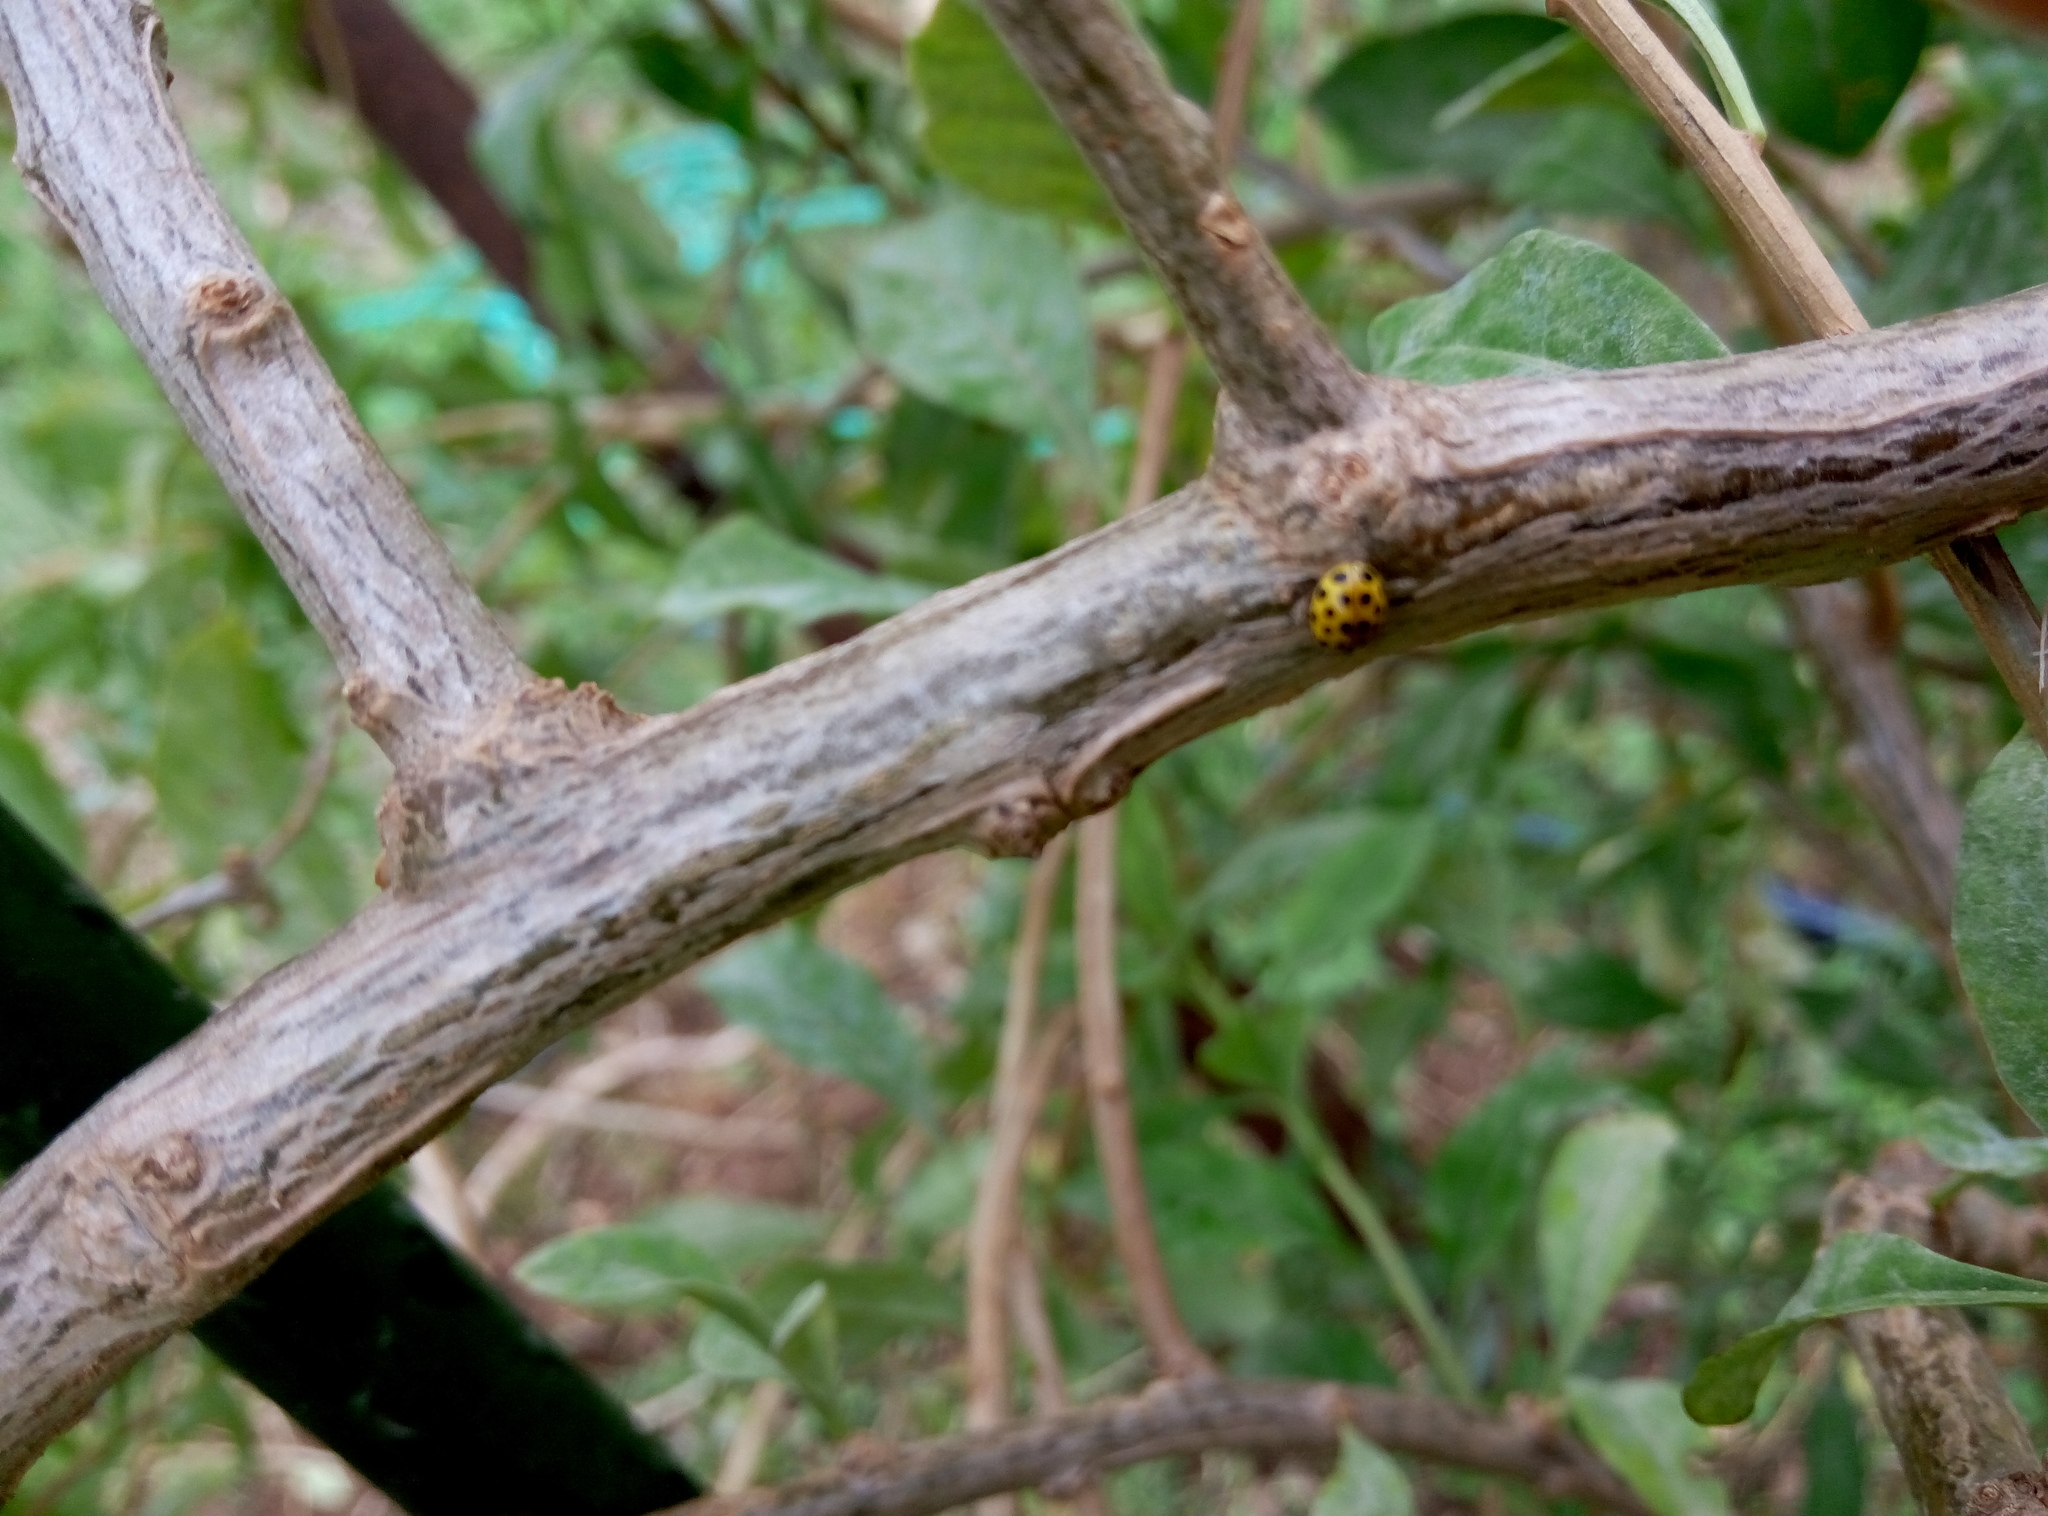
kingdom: Animalia
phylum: Arthropoda
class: Insecta
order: Coleoptera
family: Coccinellidae
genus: Psyllobora
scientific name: Psyllobora vigintiduopunctata
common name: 22-spot ladybird
